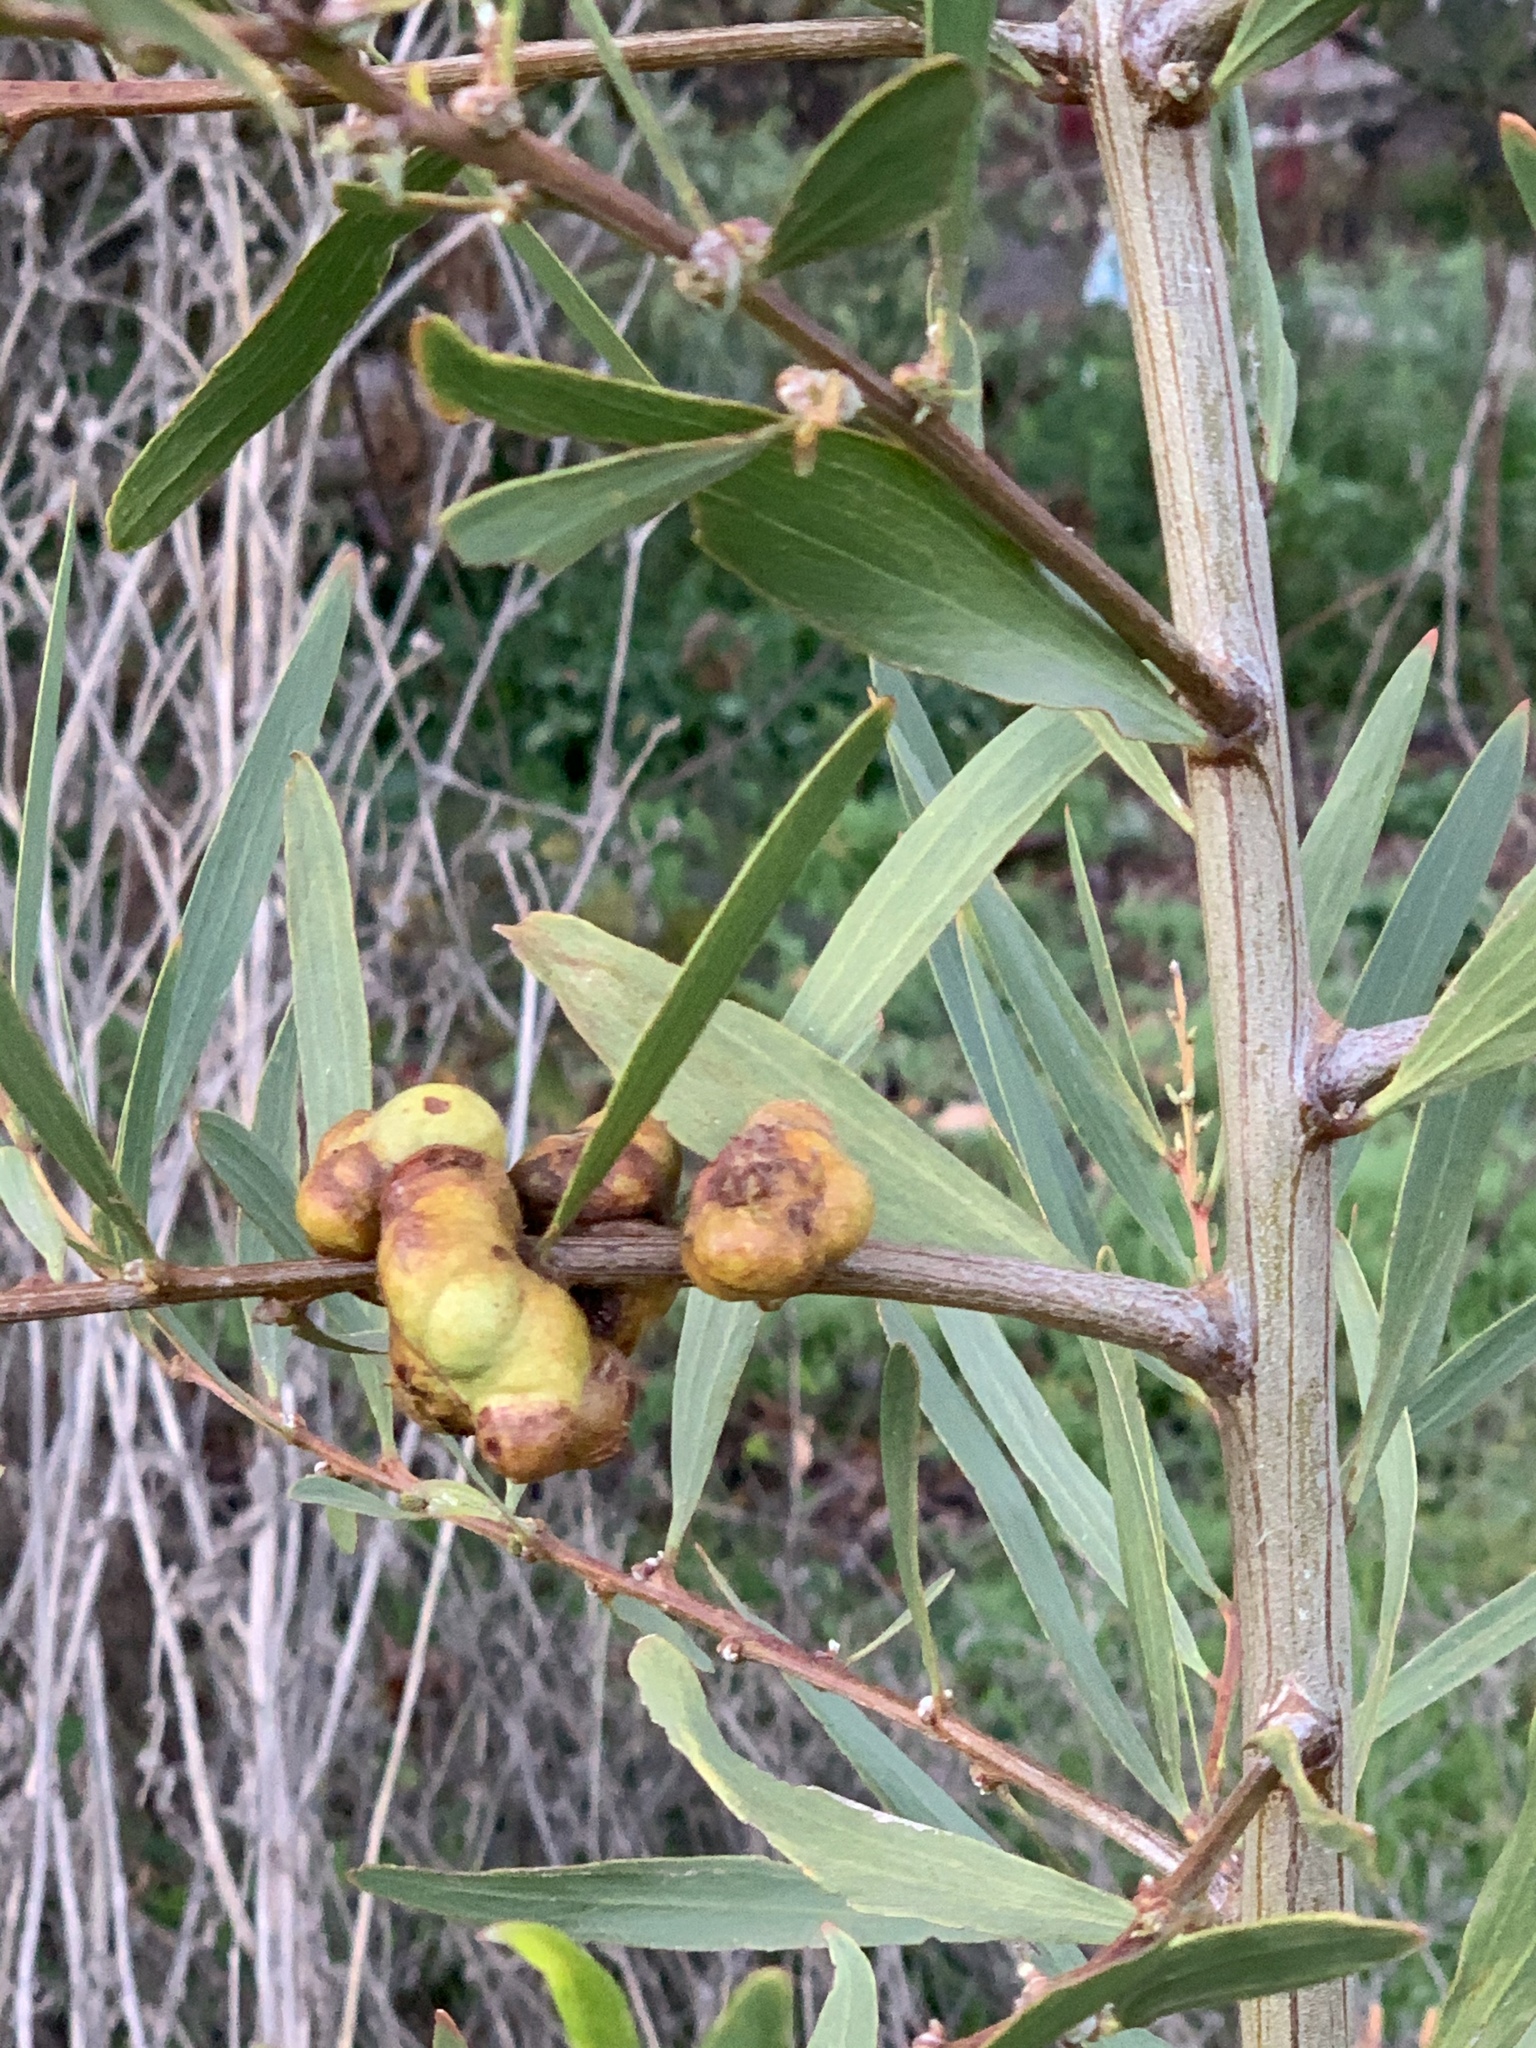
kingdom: Animalia
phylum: Arthropoda
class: Insecta
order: Hymenoptera
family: Pteromalidae
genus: Trichilogaster
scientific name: Trichilogaster acaciaelongifoliae
